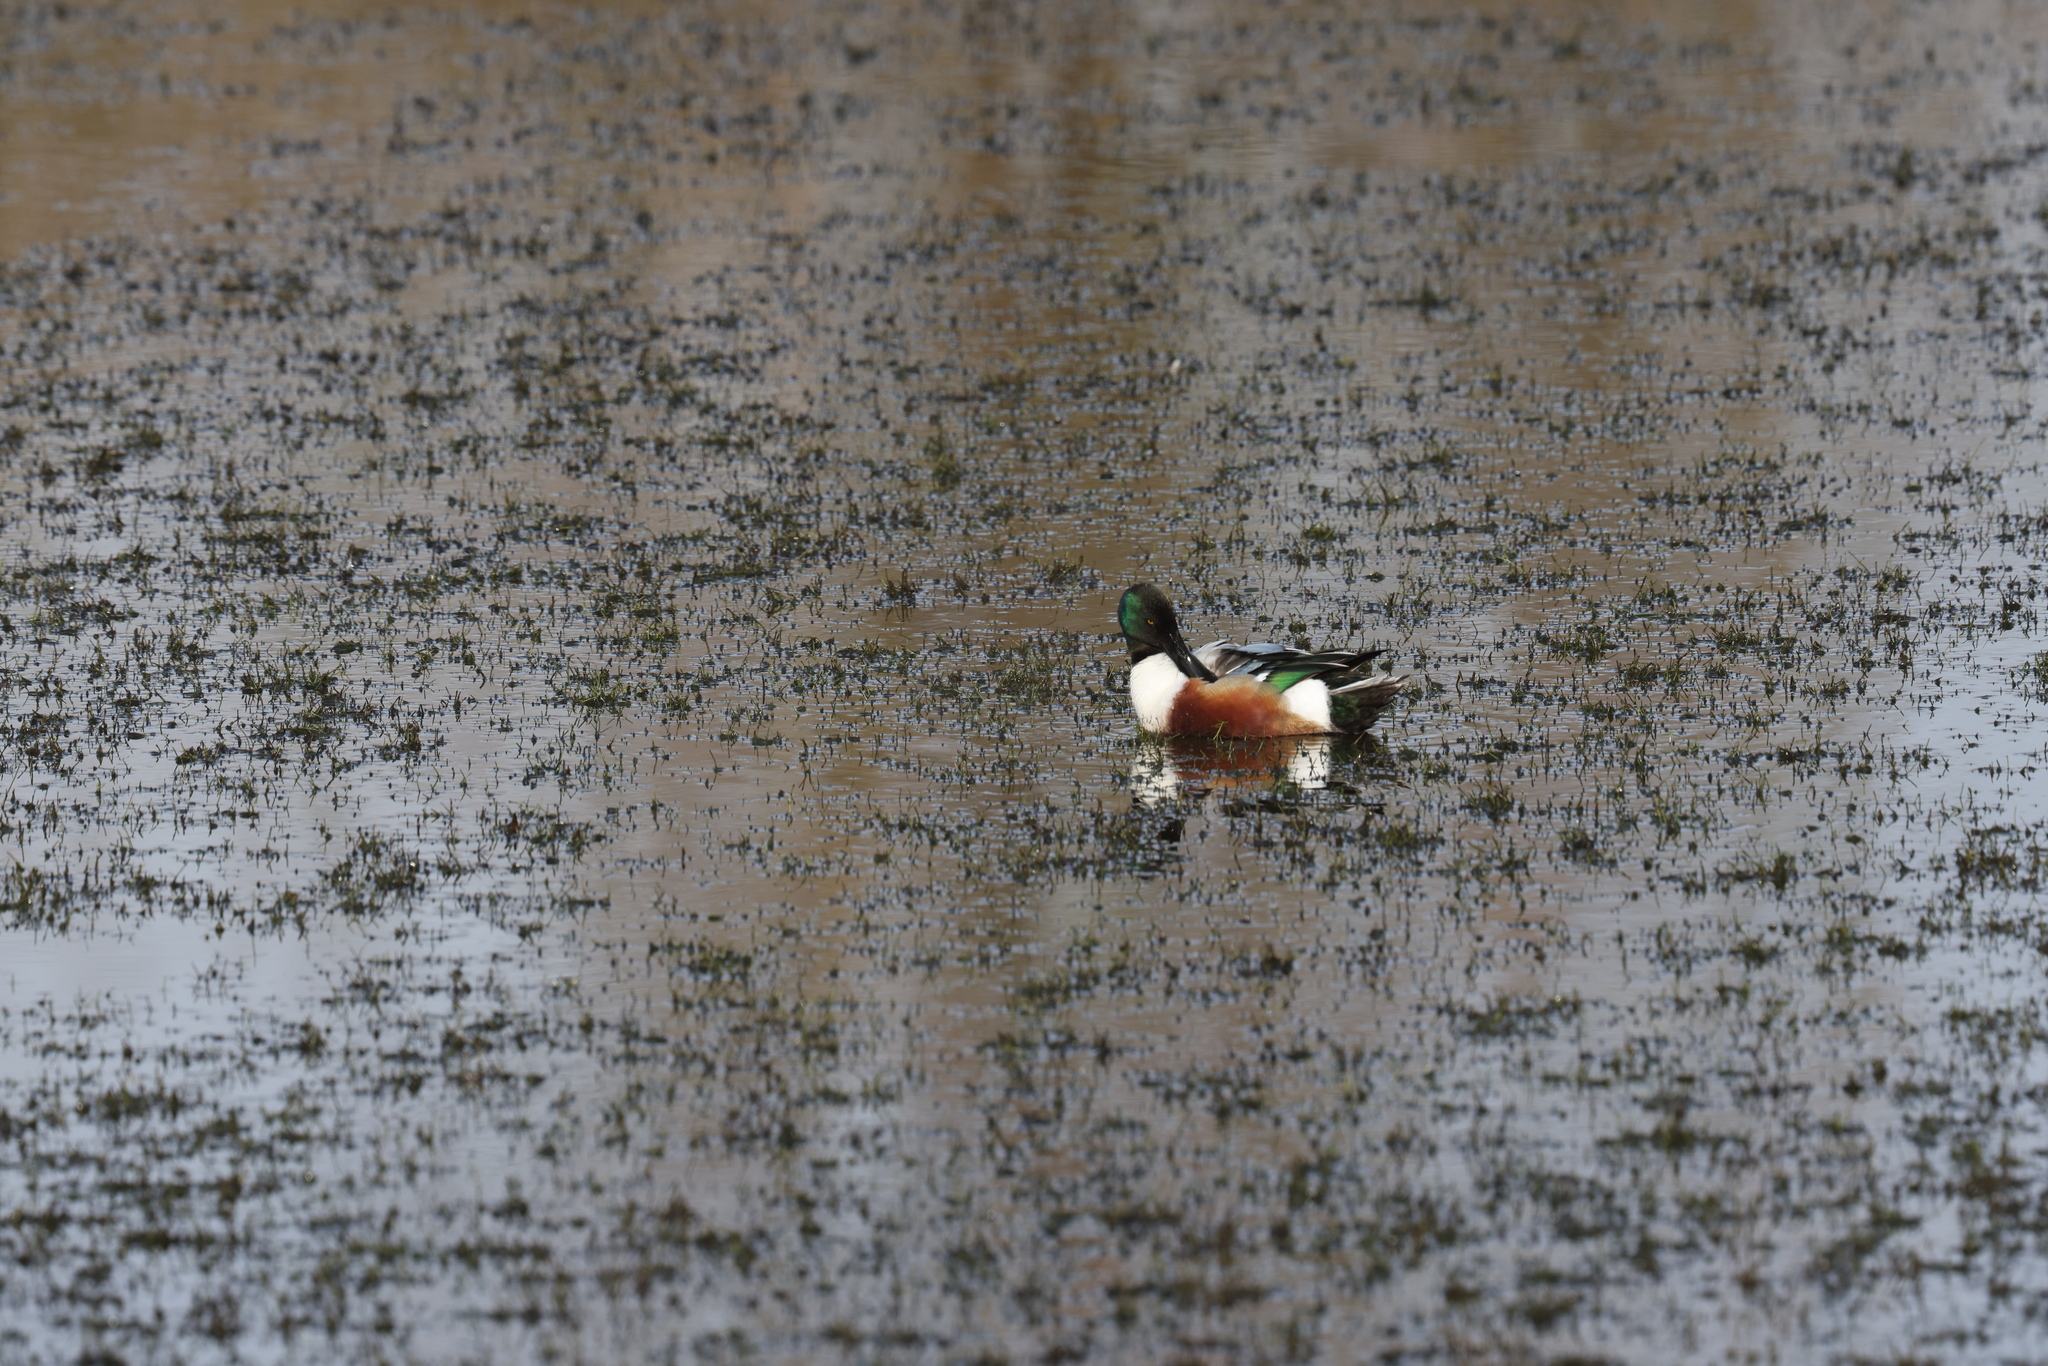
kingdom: Animalia
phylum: Chordata
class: Aves
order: Anseriformes
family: Anatidae
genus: Spatula
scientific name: Spatula clypeata
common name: Northern shoveler
